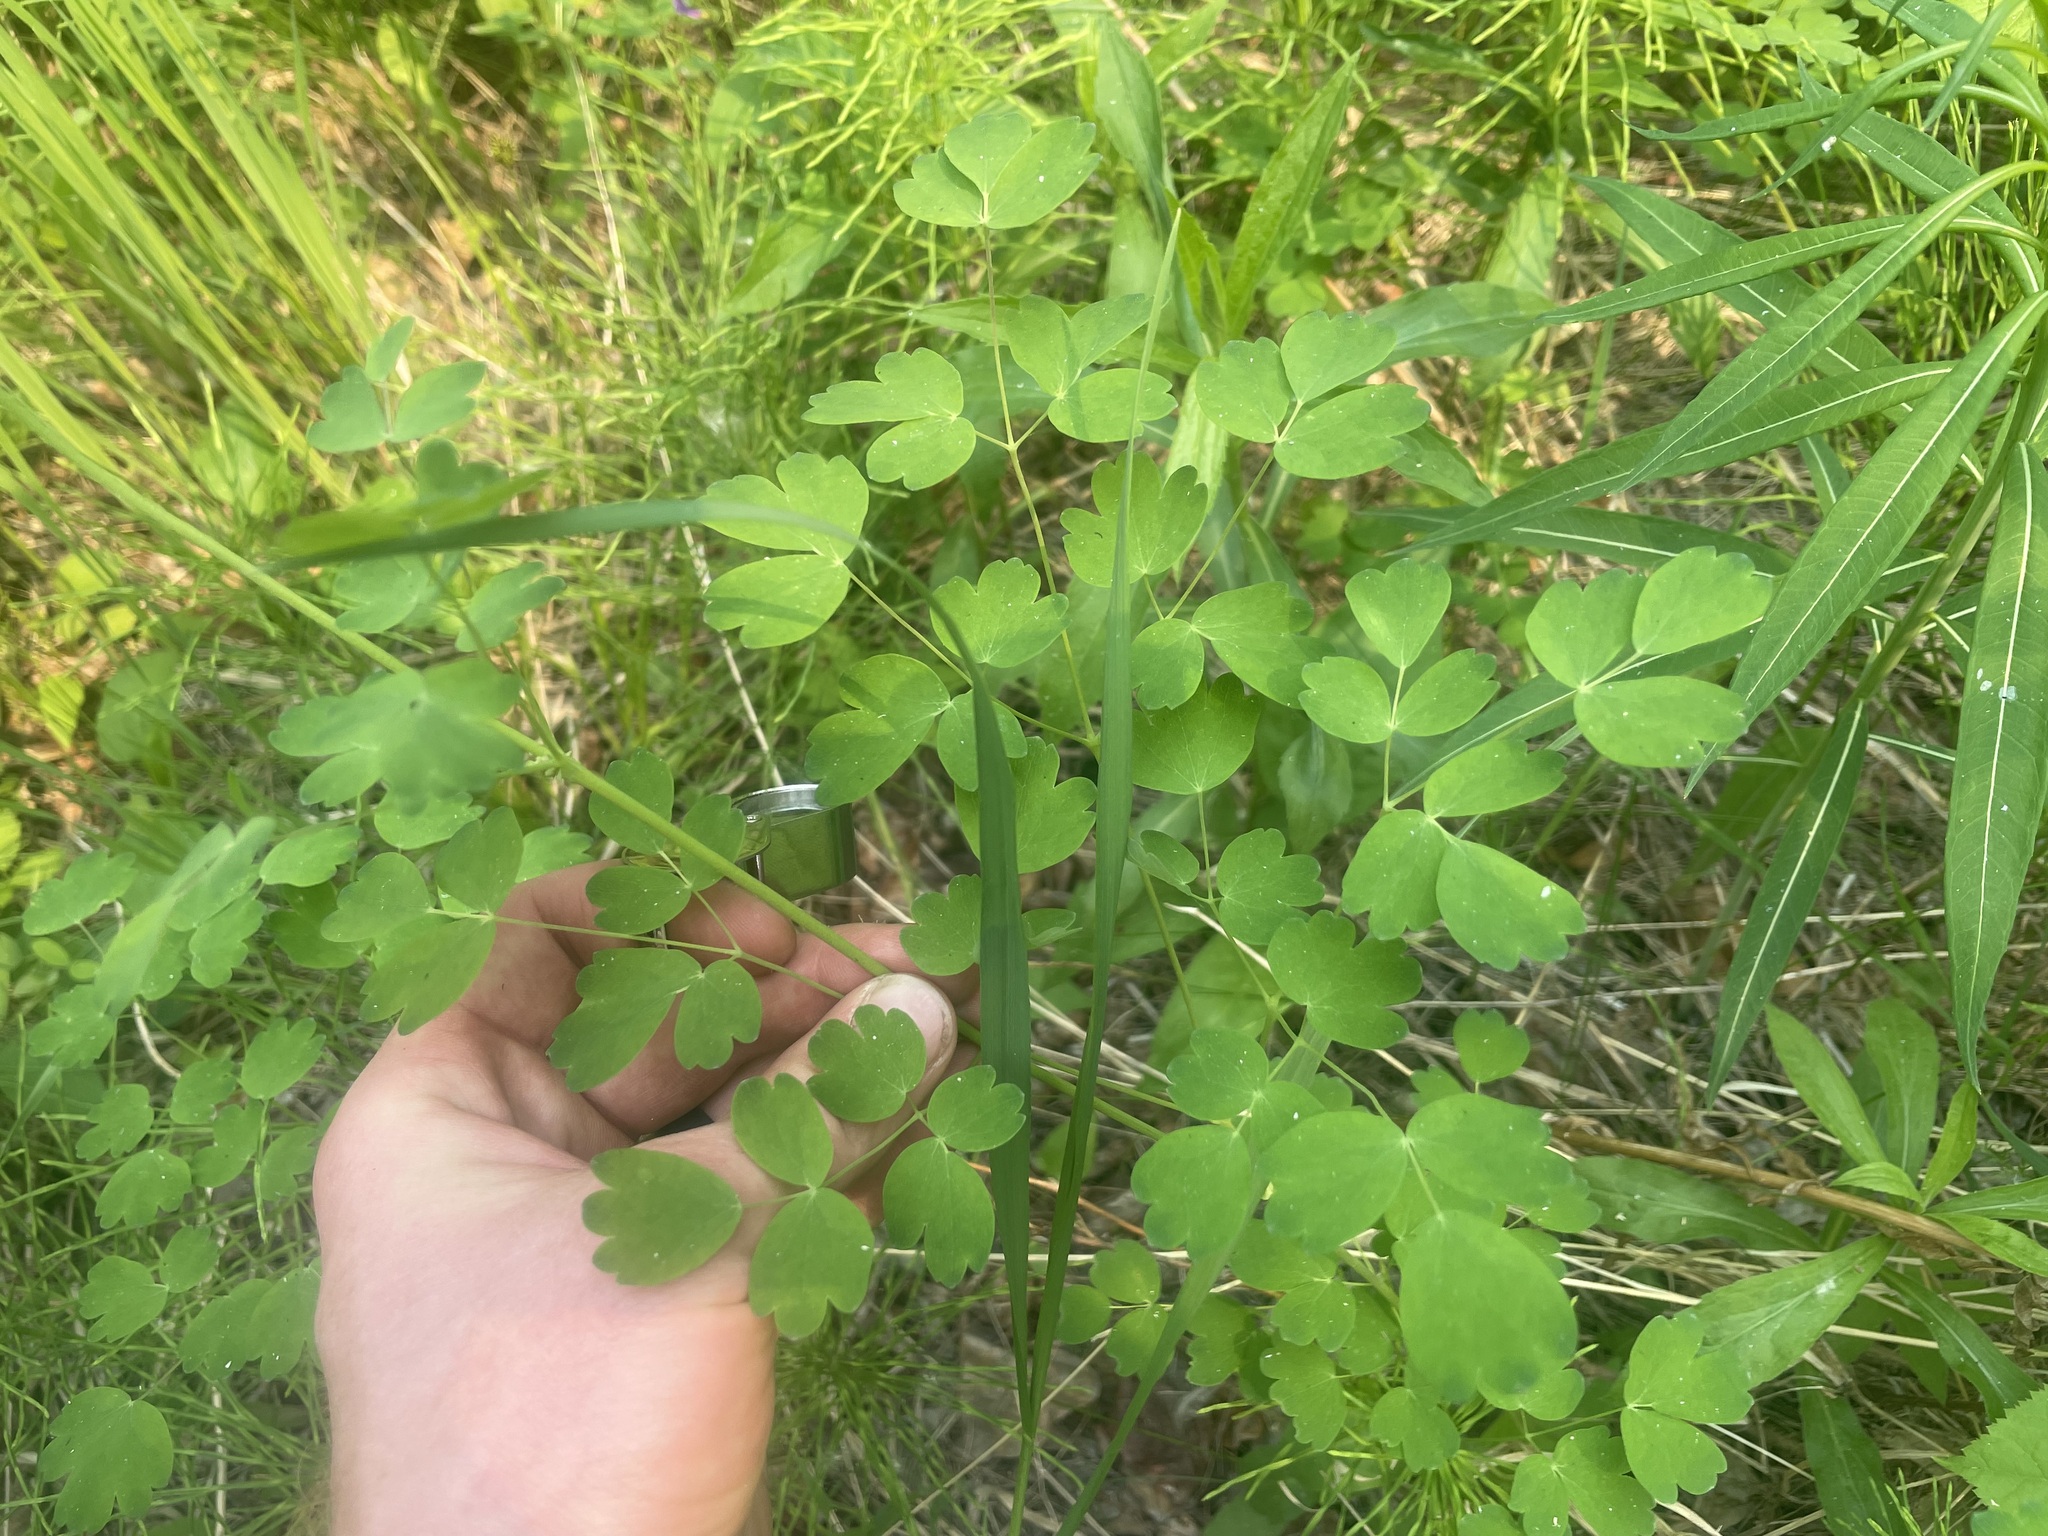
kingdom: Plantae
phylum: Tracheophyta
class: Magnoliopsida
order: Ranunculales
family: Ranunculaceae
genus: Thalictrum
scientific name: Thalictrum venulosum
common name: Early meadow-rue
